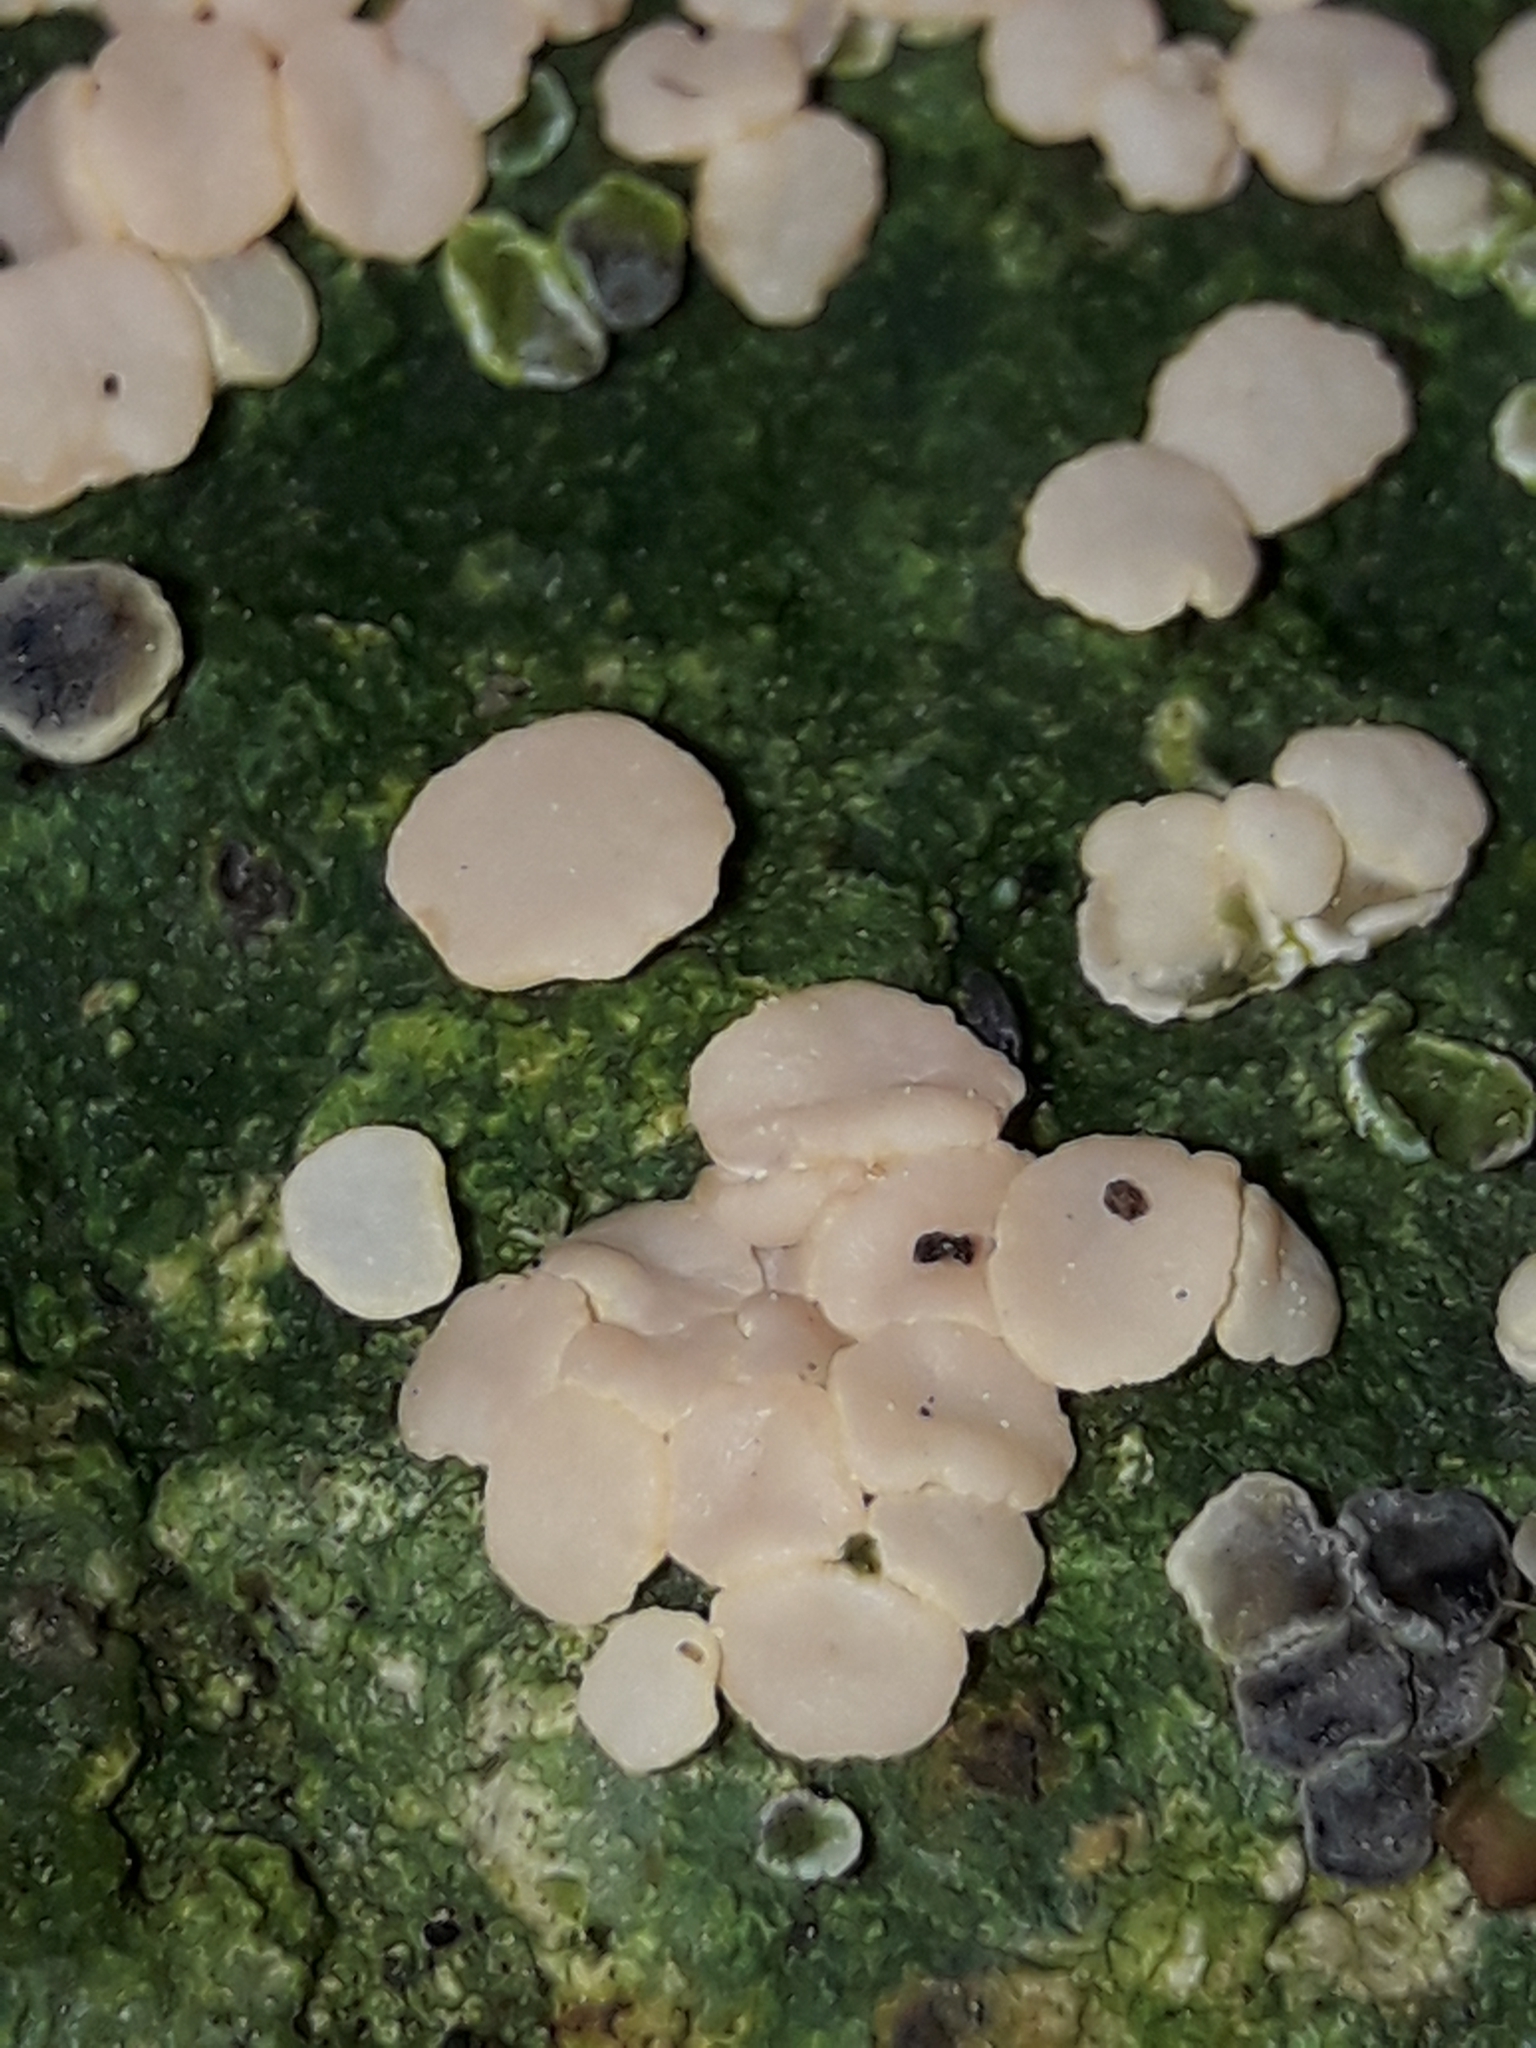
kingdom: Fungi
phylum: Ascomycota
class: Lecanoromycetes
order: Pertusariales
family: Icmadophilaceae
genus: Dibaeis
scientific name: Dibaeis absoluta
